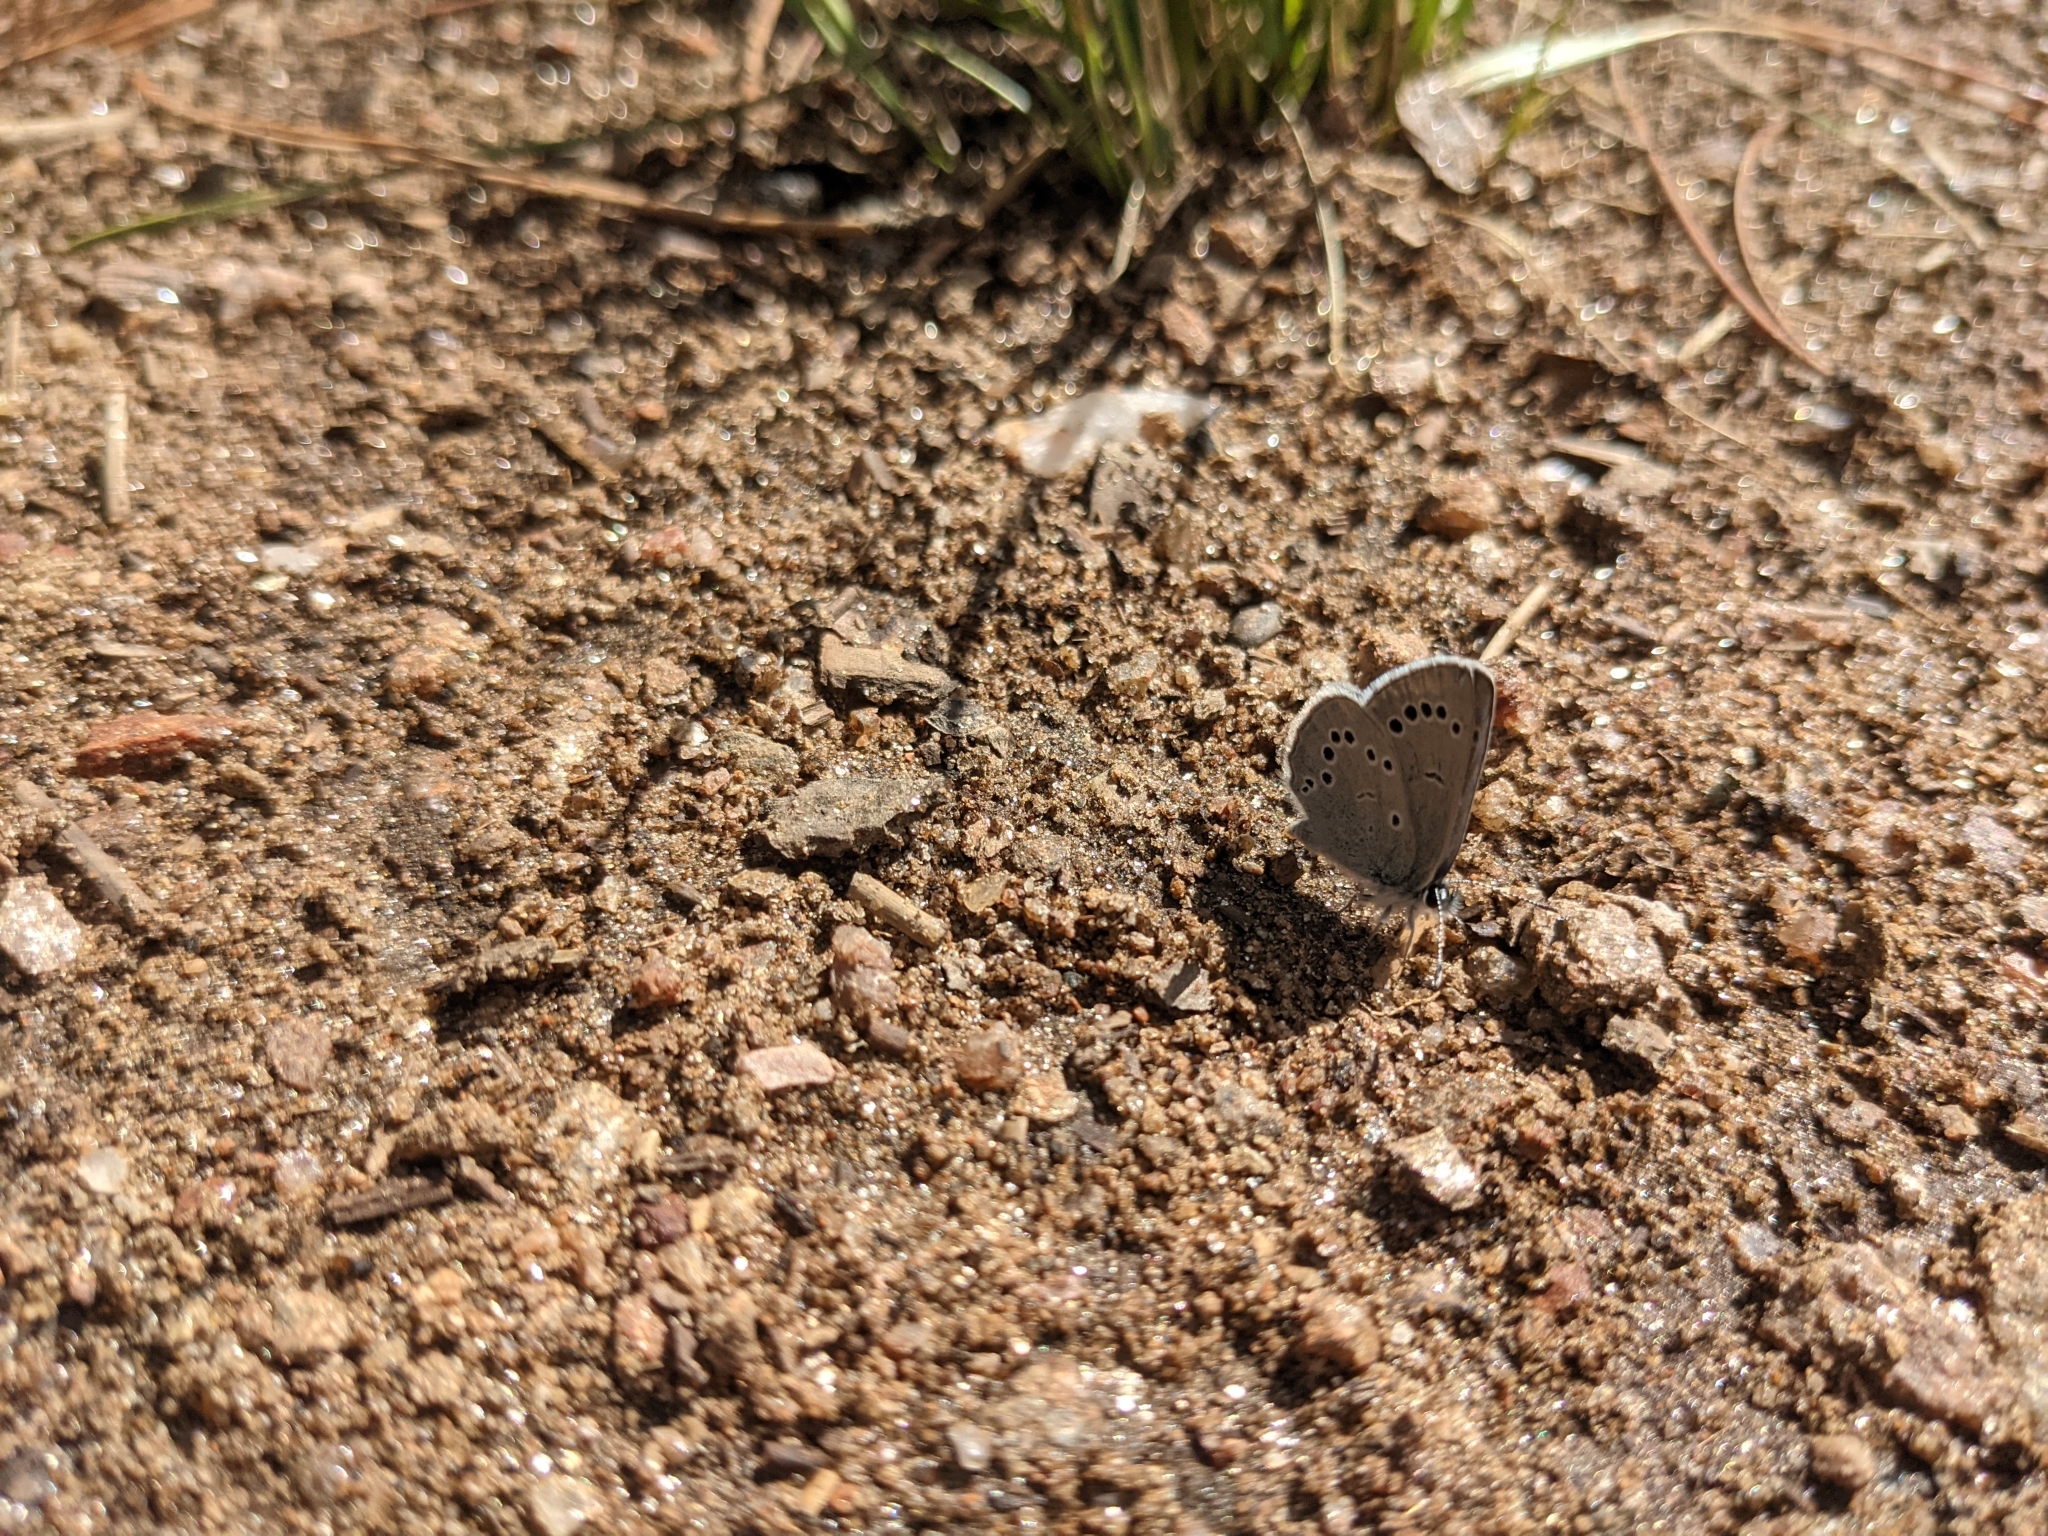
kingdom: Animalia
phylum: Arthropoda
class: Insecta
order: Lepidoptera
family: Lycaenidae
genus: Glaucopsyche
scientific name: Glaucopsyche lygdamus
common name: Silvery blue
